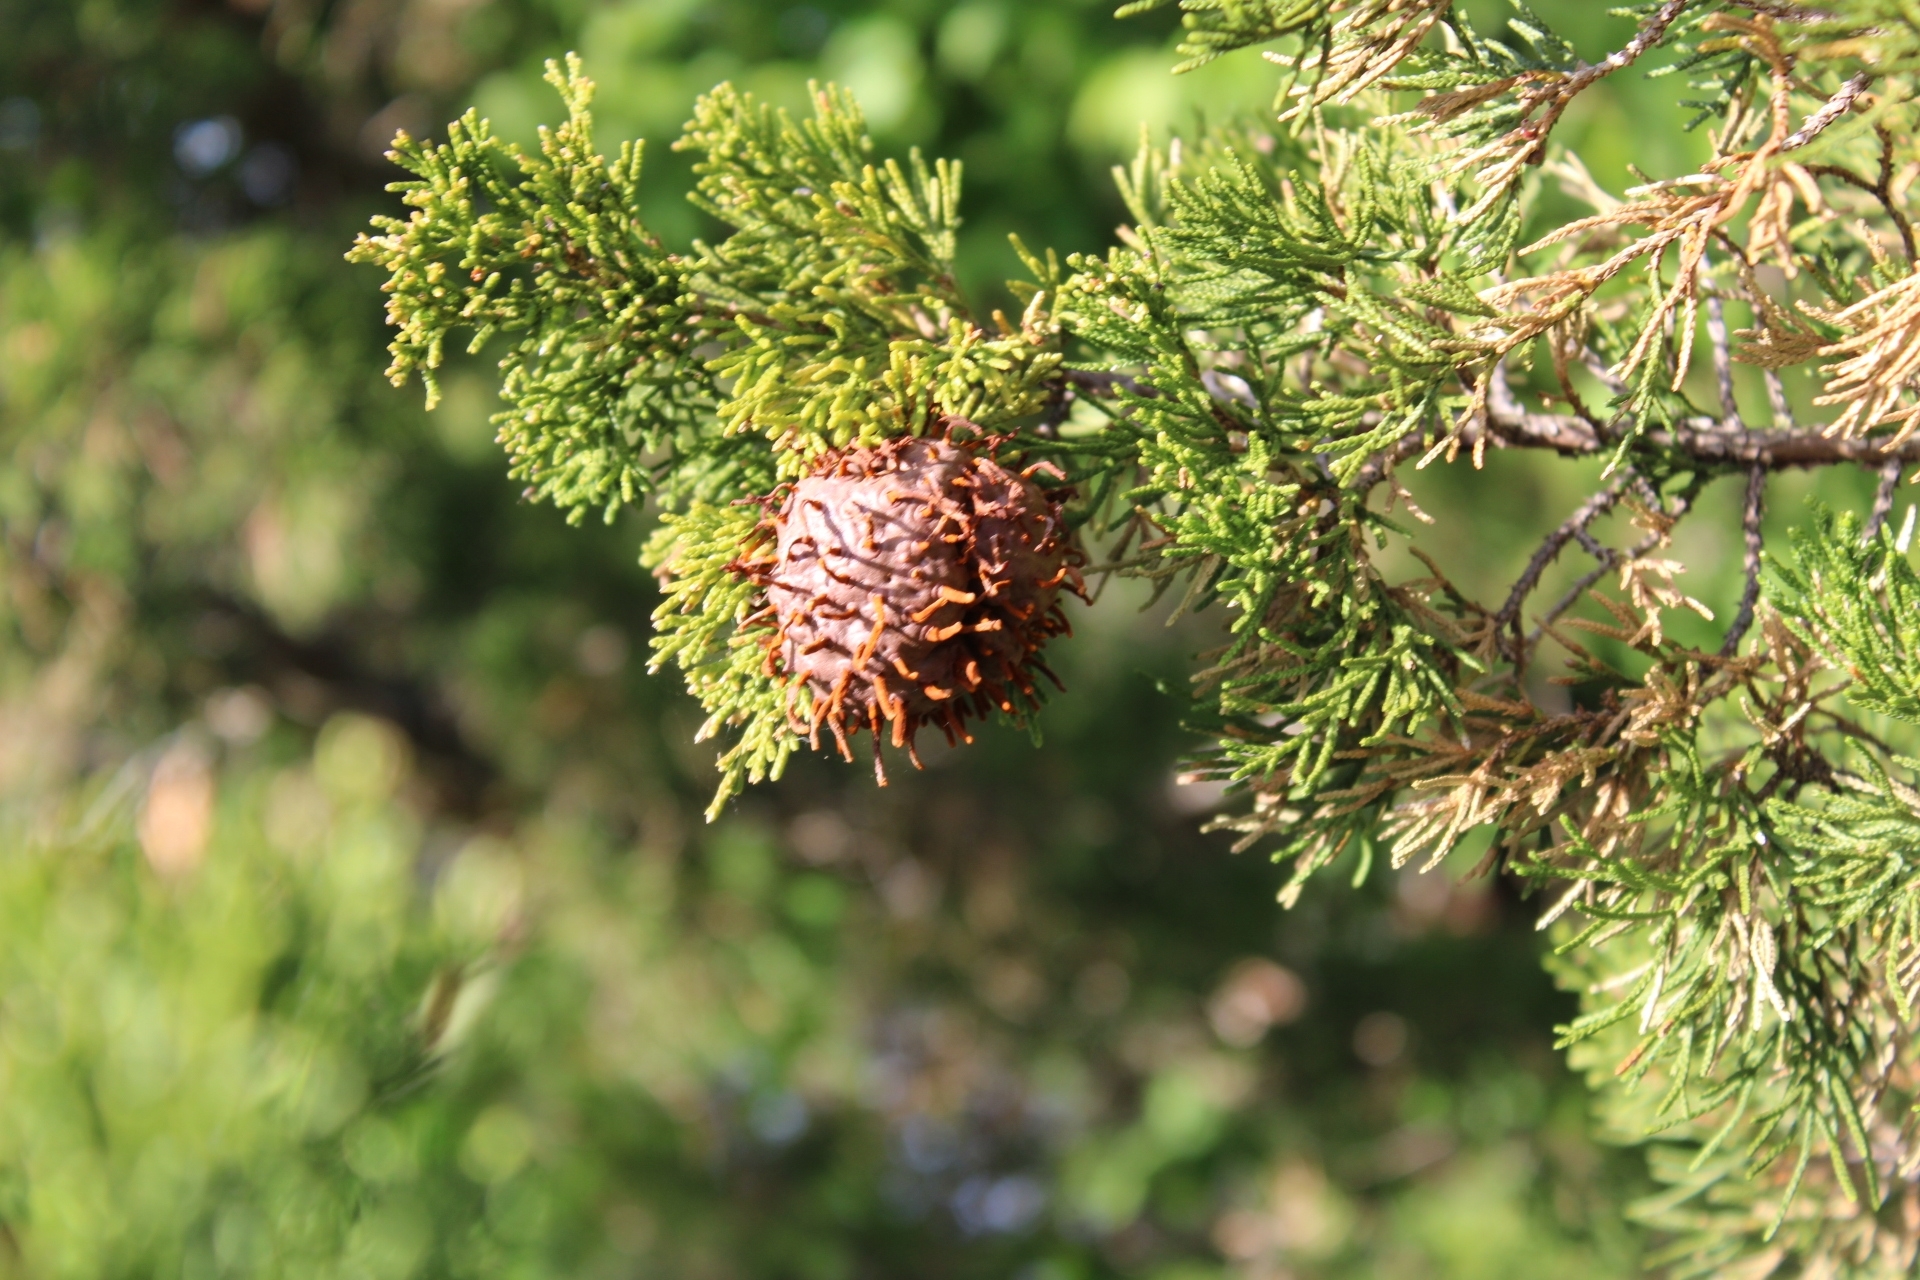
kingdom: Fungi
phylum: Basidiomycota
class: Pucciniomycetes
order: Pucciniales
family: Gymnosporangiaceae
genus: Gymnosporangium
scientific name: Gymnosporangium juniperi-virginianae
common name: Juniper-apple rust
